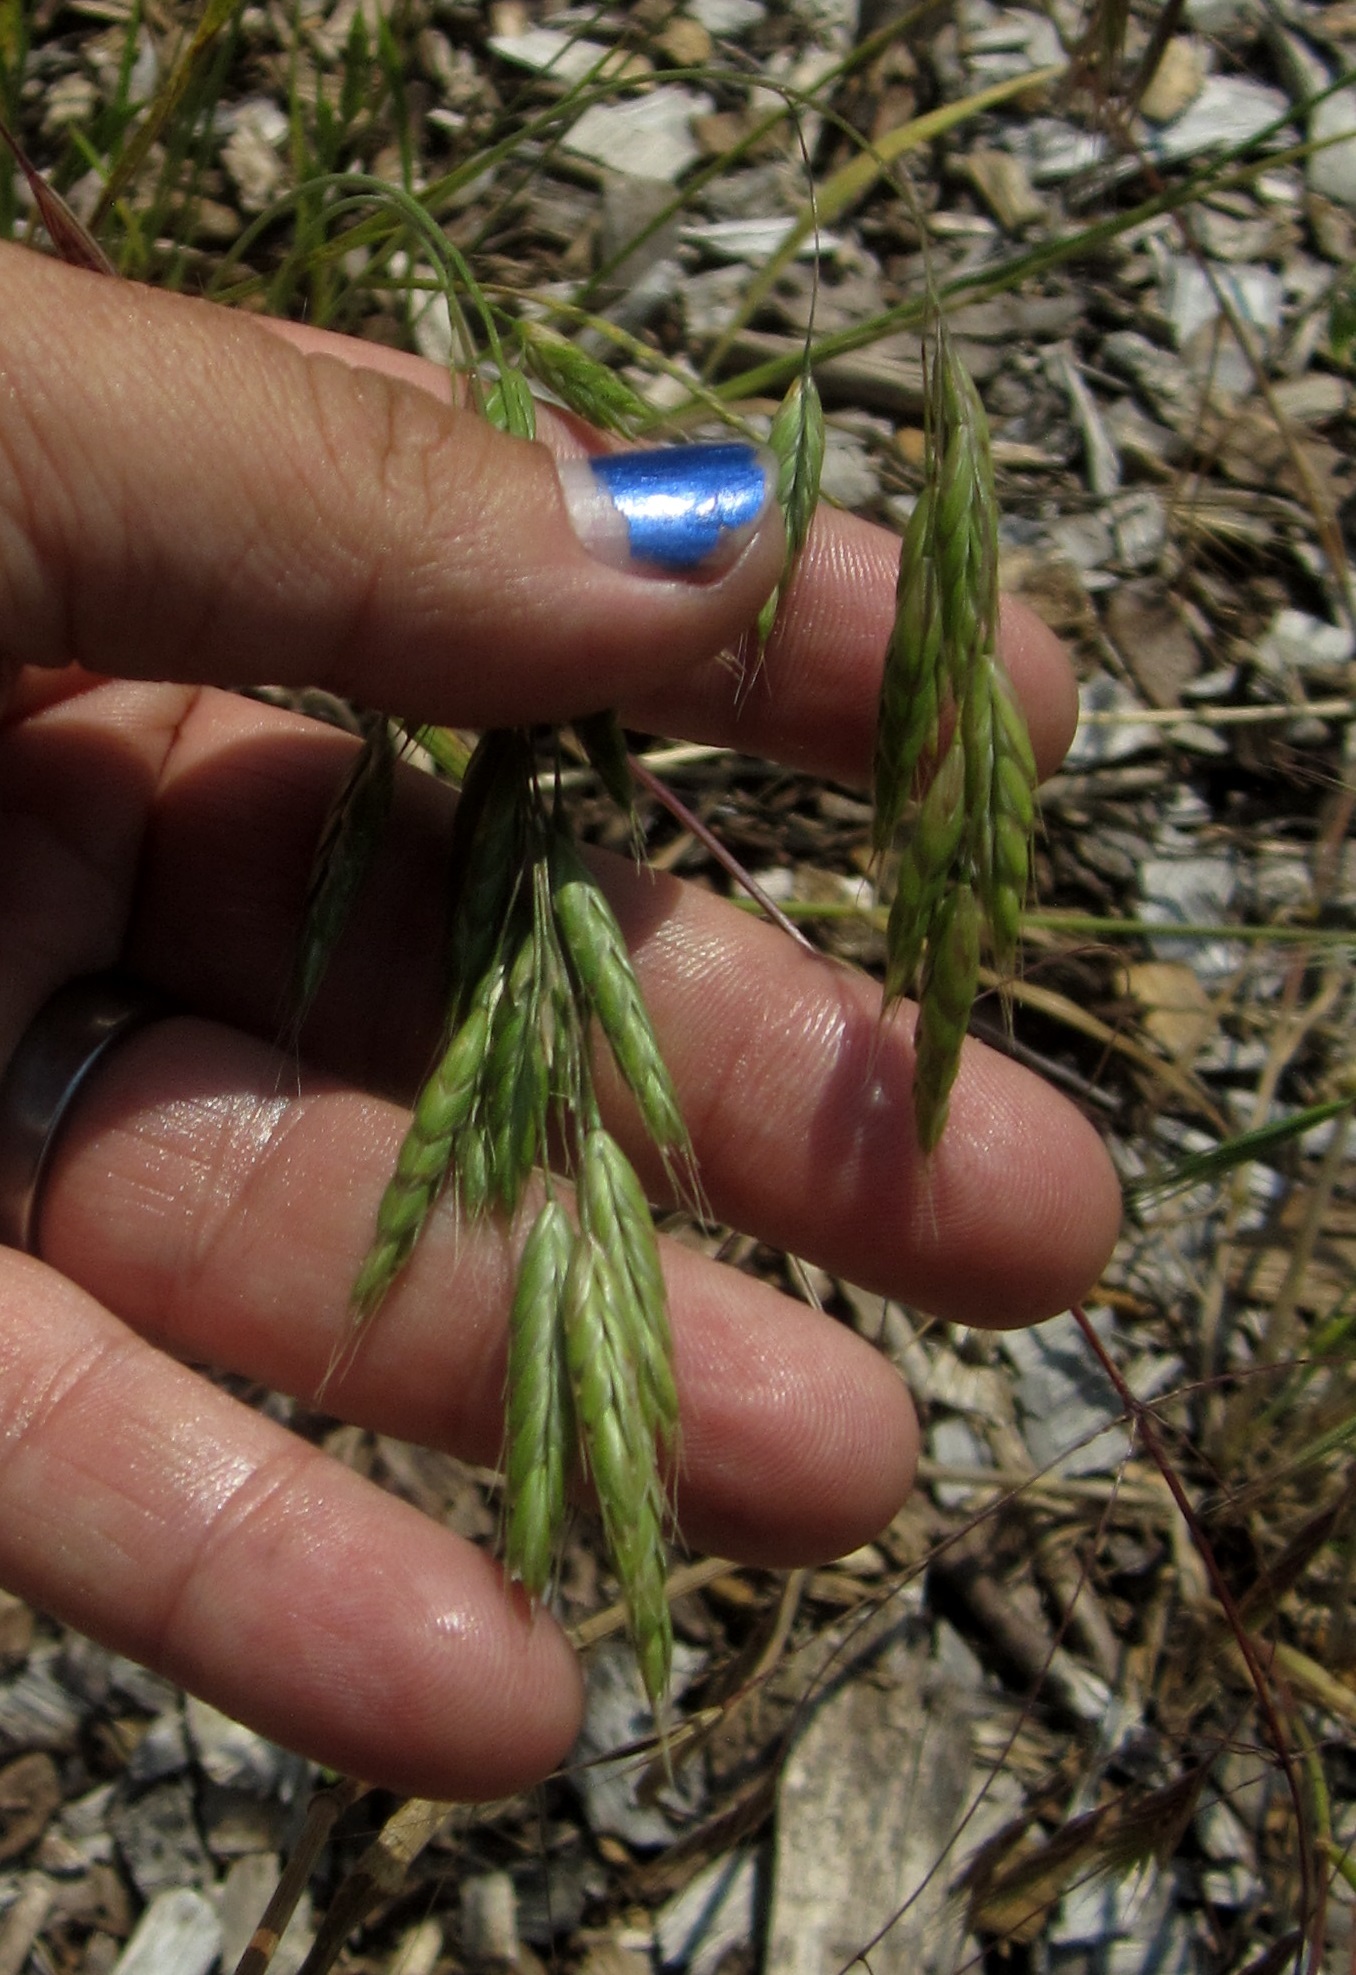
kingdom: Plantae
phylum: Tracheophyta
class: Liliopsida
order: Poales
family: Poaceae
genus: Bromus
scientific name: Bromus japonicus
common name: Japanese brome
